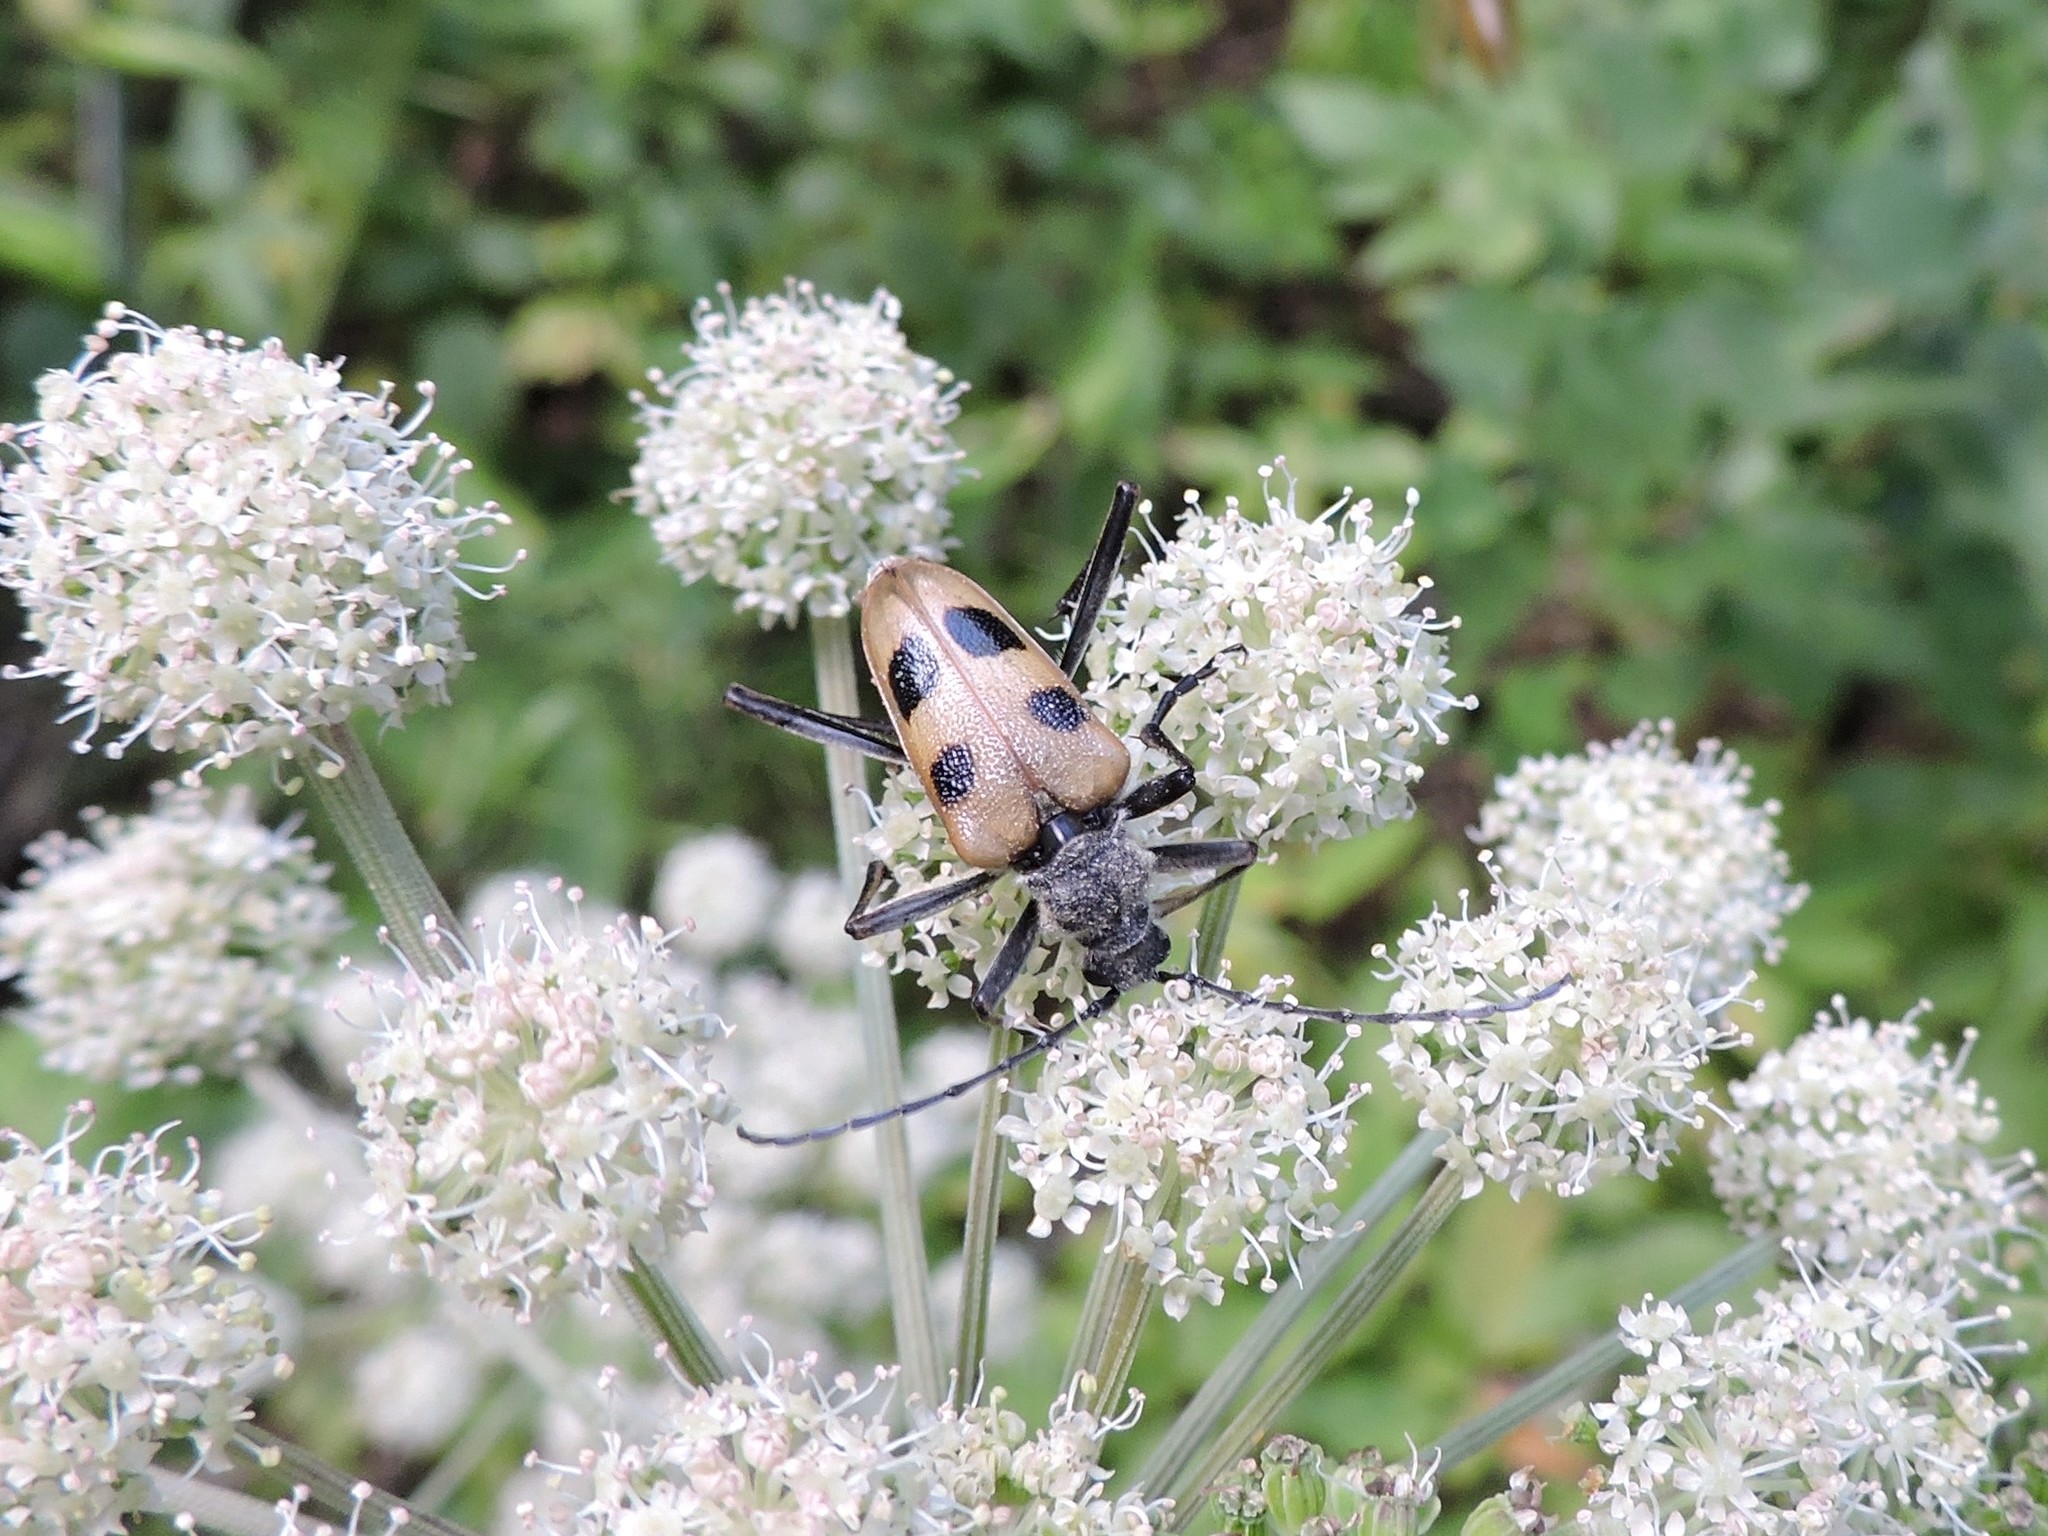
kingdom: Animalia
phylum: Arthropoda
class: Insecta
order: Coleoptera
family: Cerambycidae
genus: Pachyta
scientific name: Pachyta quadrimaculata
